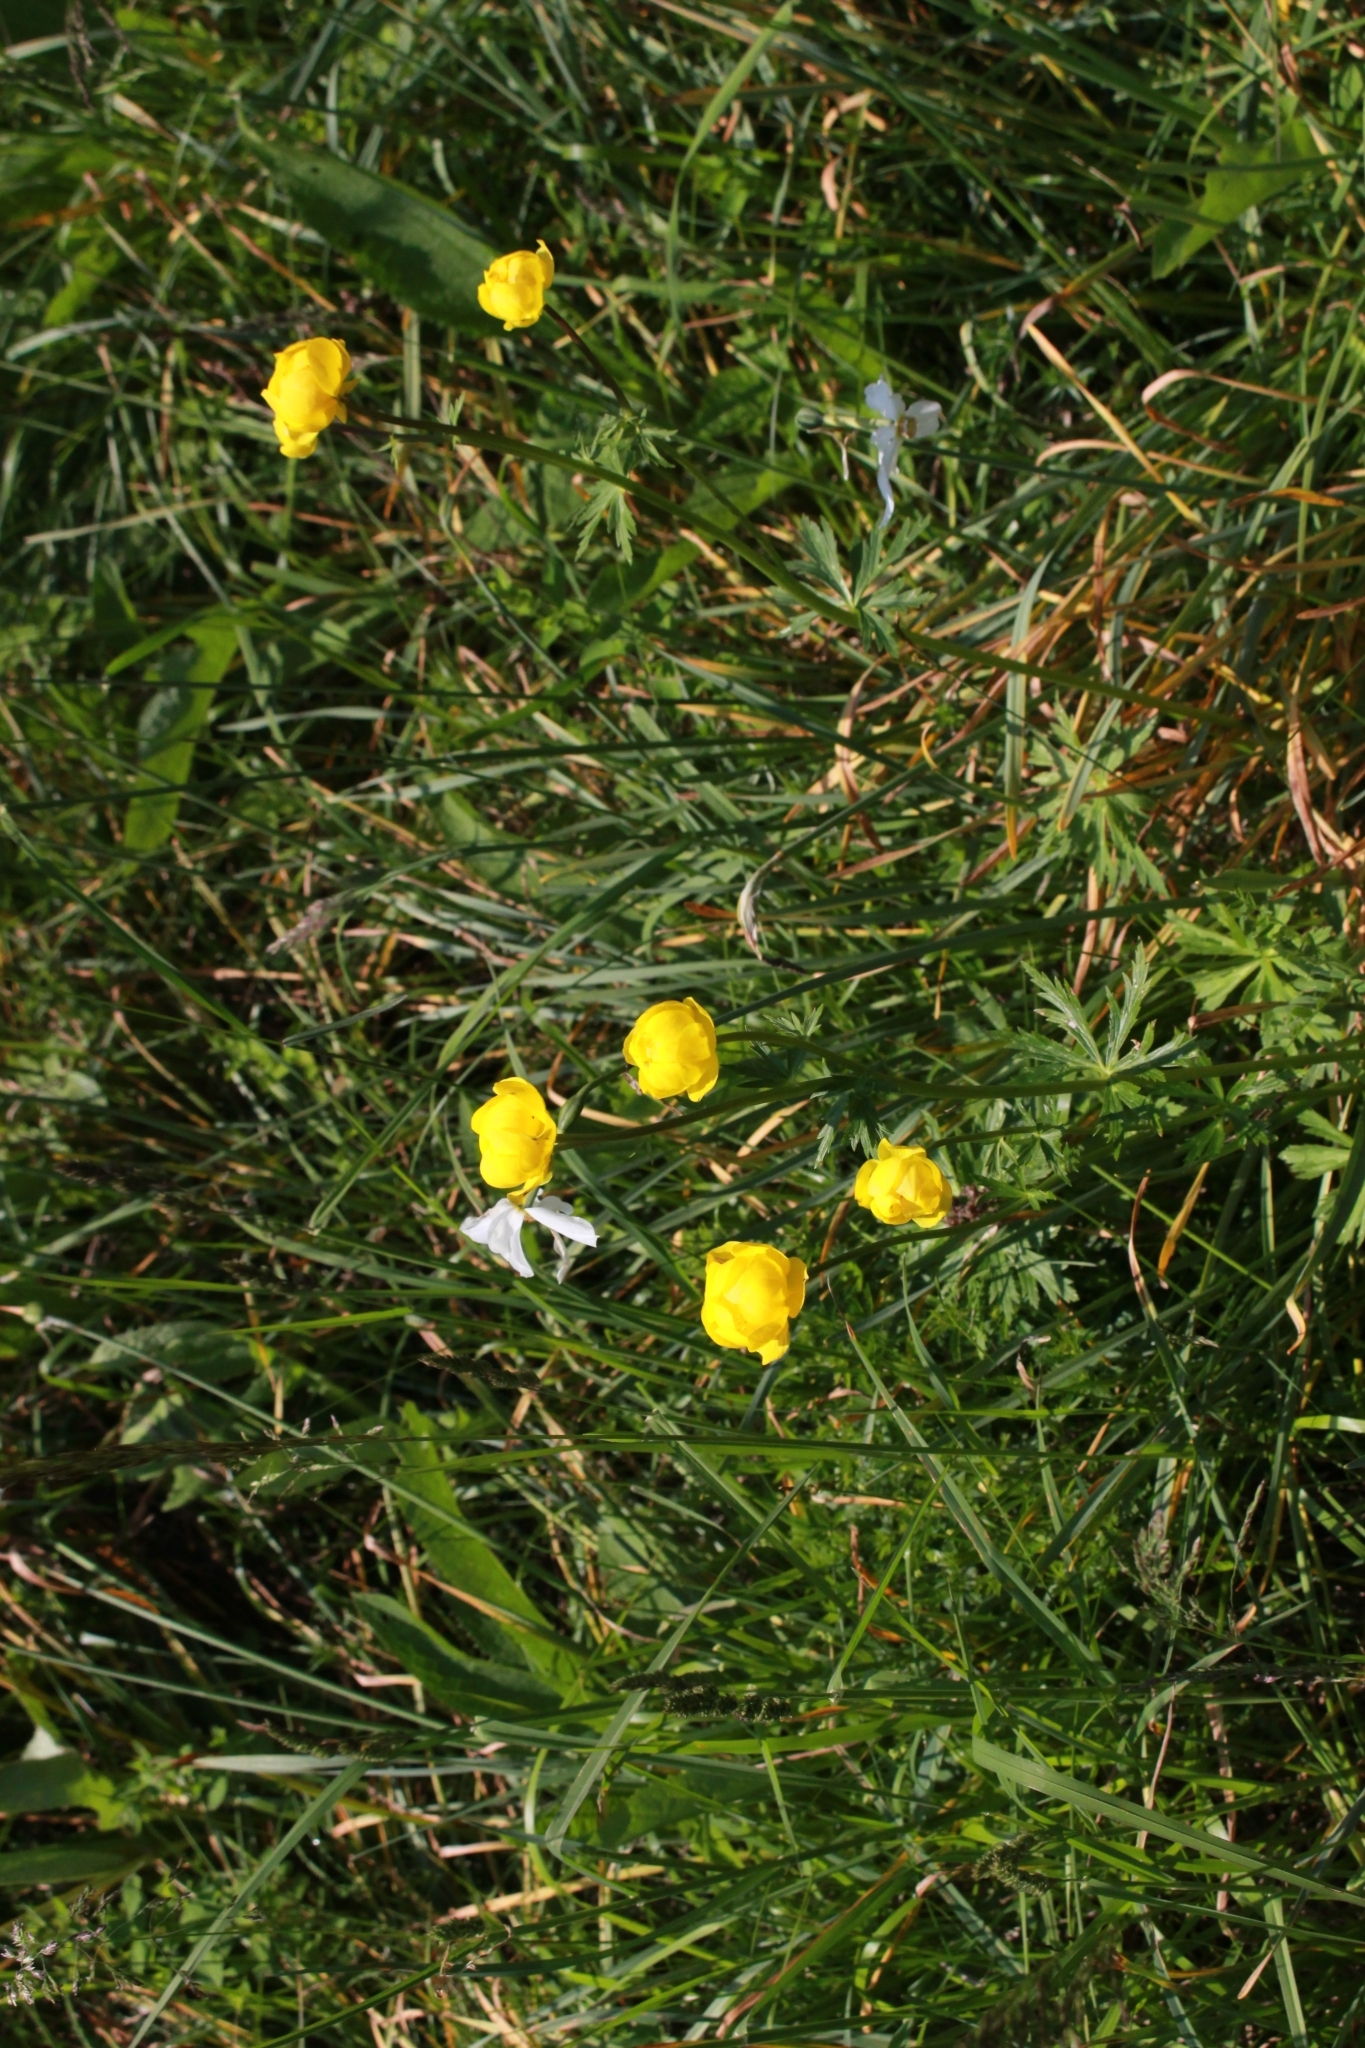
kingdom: Plantae
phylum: Tracheophyta
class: Magnoliopsida
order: Ranunculales
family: Ranunculaceae
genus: Trollius
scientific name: Trollius europaeus
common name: European globeflower
